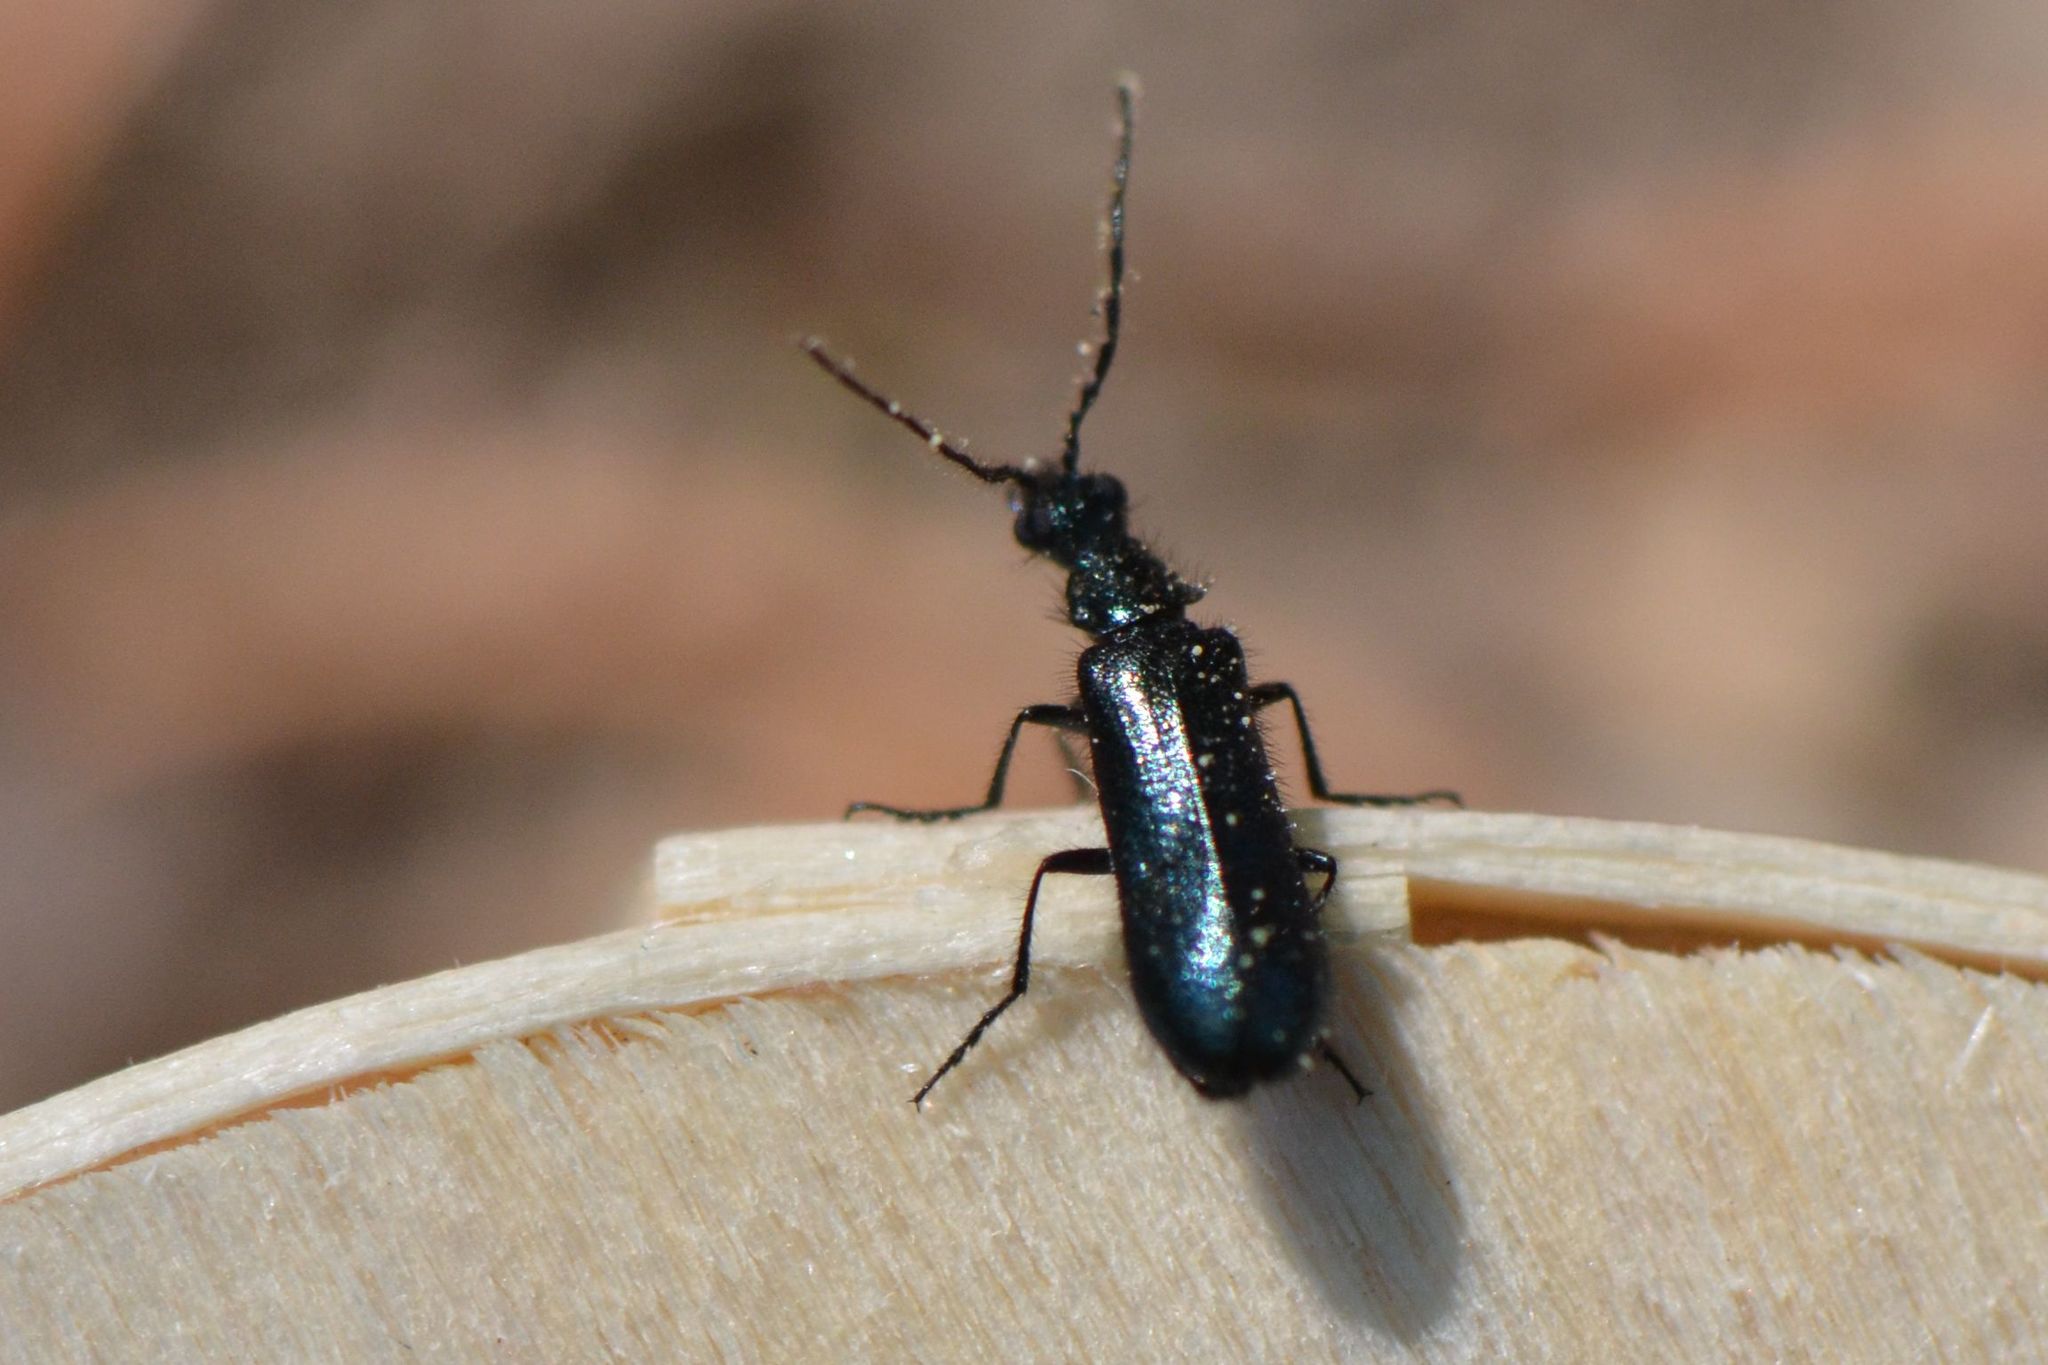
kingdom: Animalia
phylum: Arthropoda
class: Insecta
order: Coleoptera
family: Melyridae
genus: Dasytes
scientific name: Dasytes caeruleus
